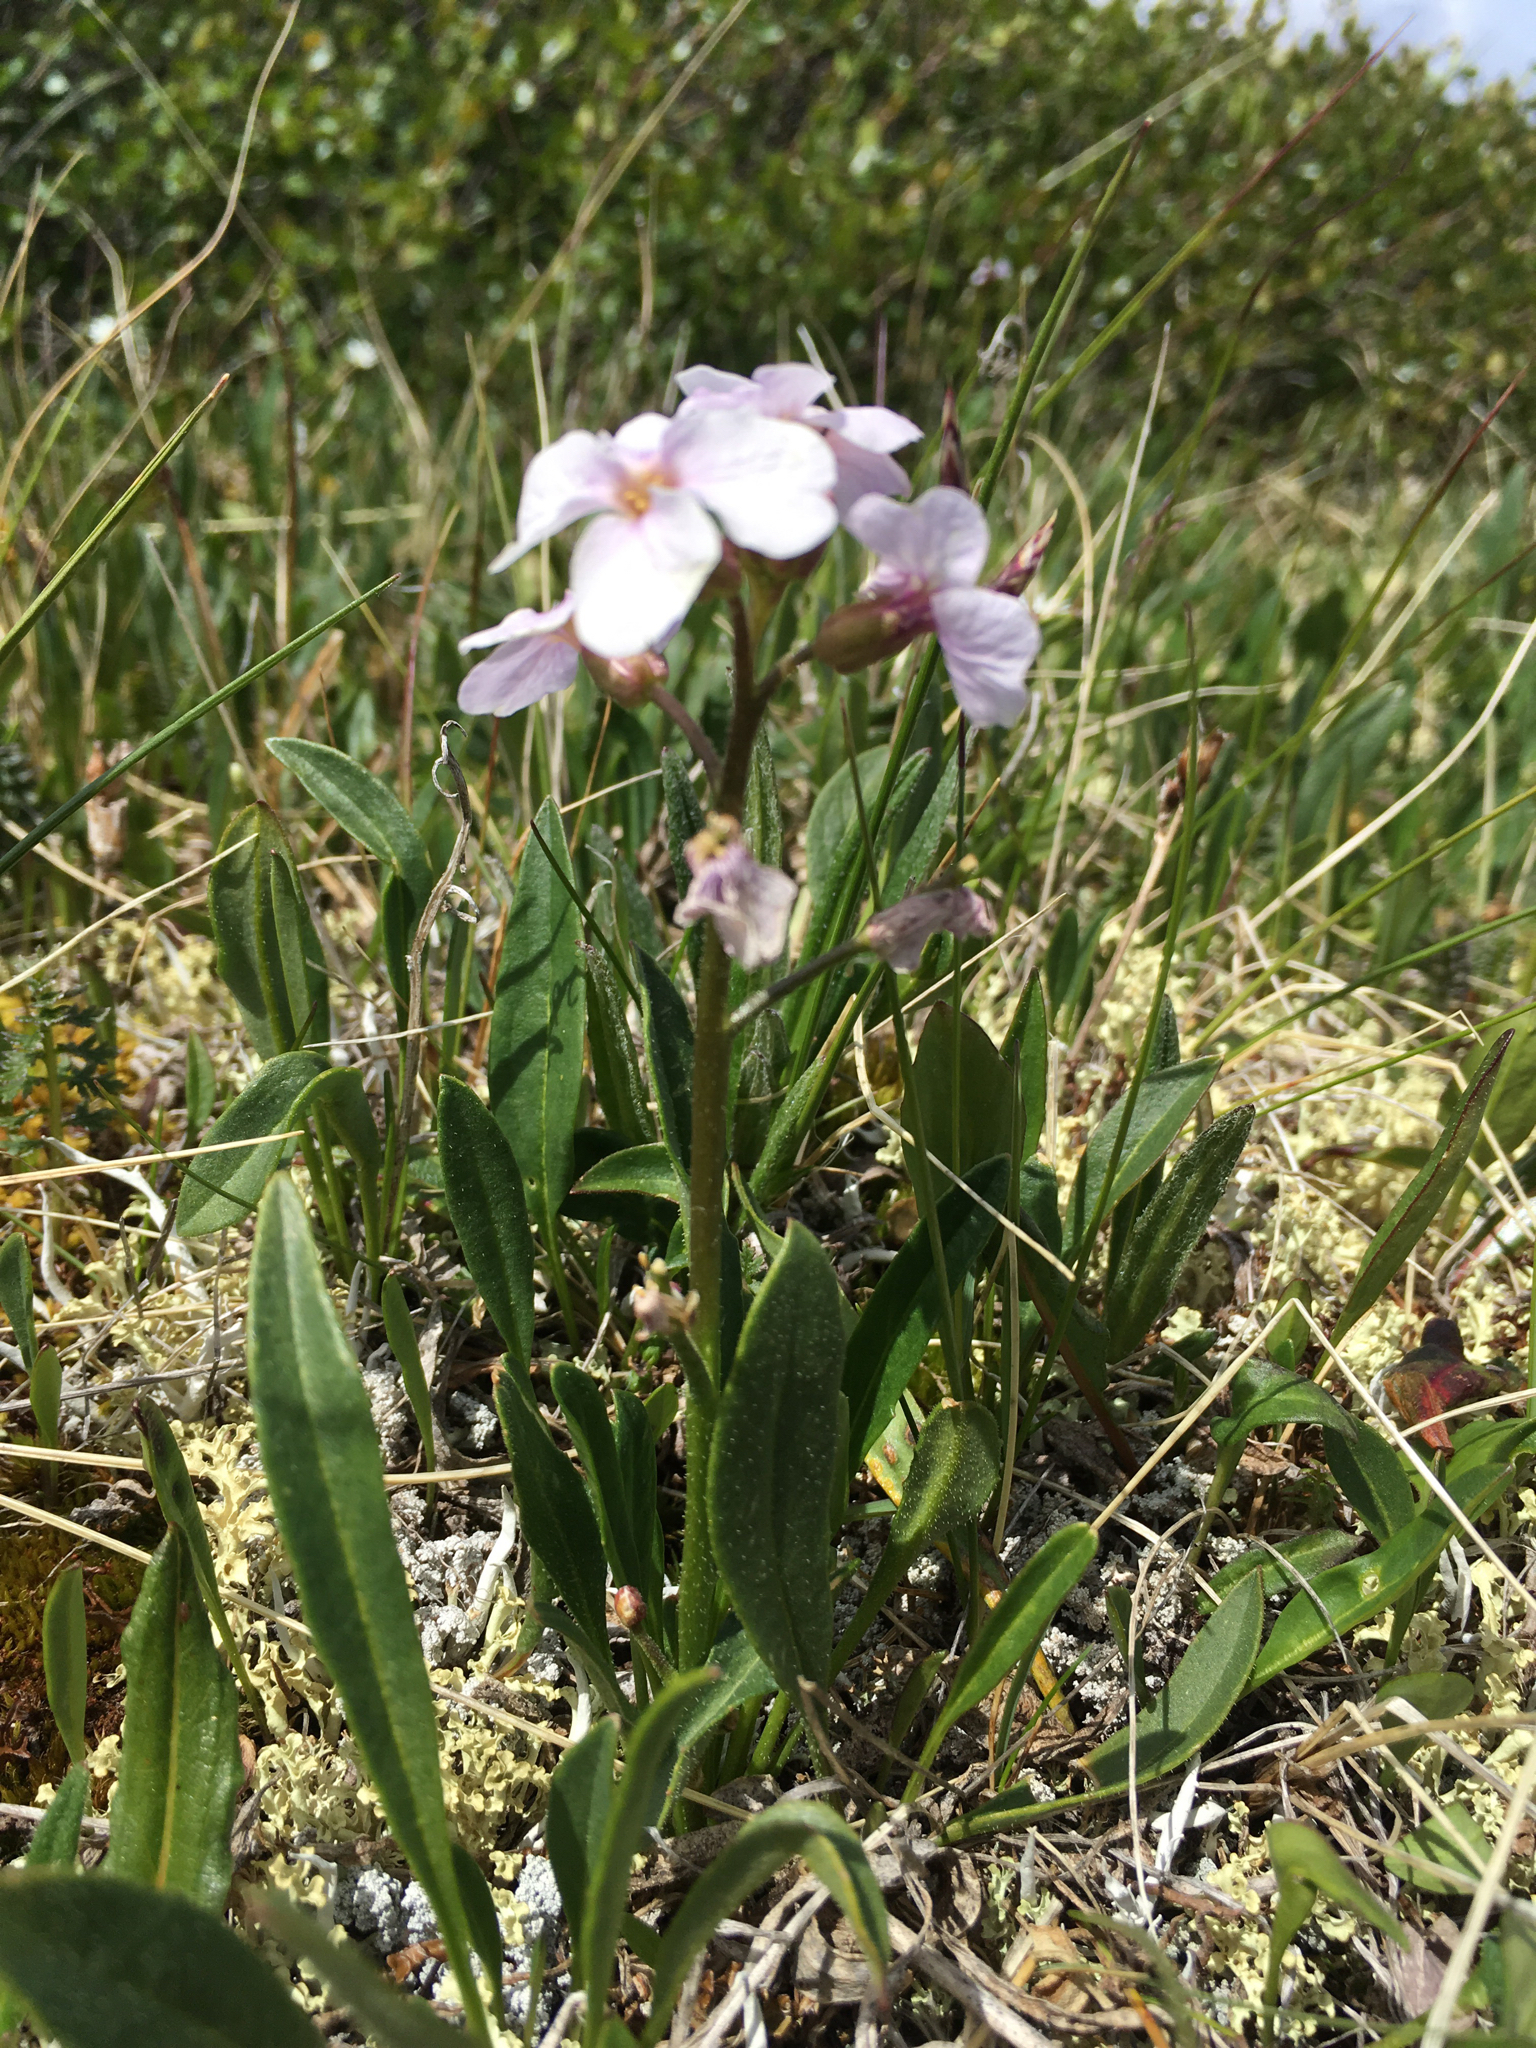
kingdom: Plantae
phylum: Tracheophyta
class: Magnoliopsida
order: Brassicales
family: Brassicaceae
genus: Parrya
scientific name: Parrya nudicaulis
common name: Naked-stemmed false wallflower
